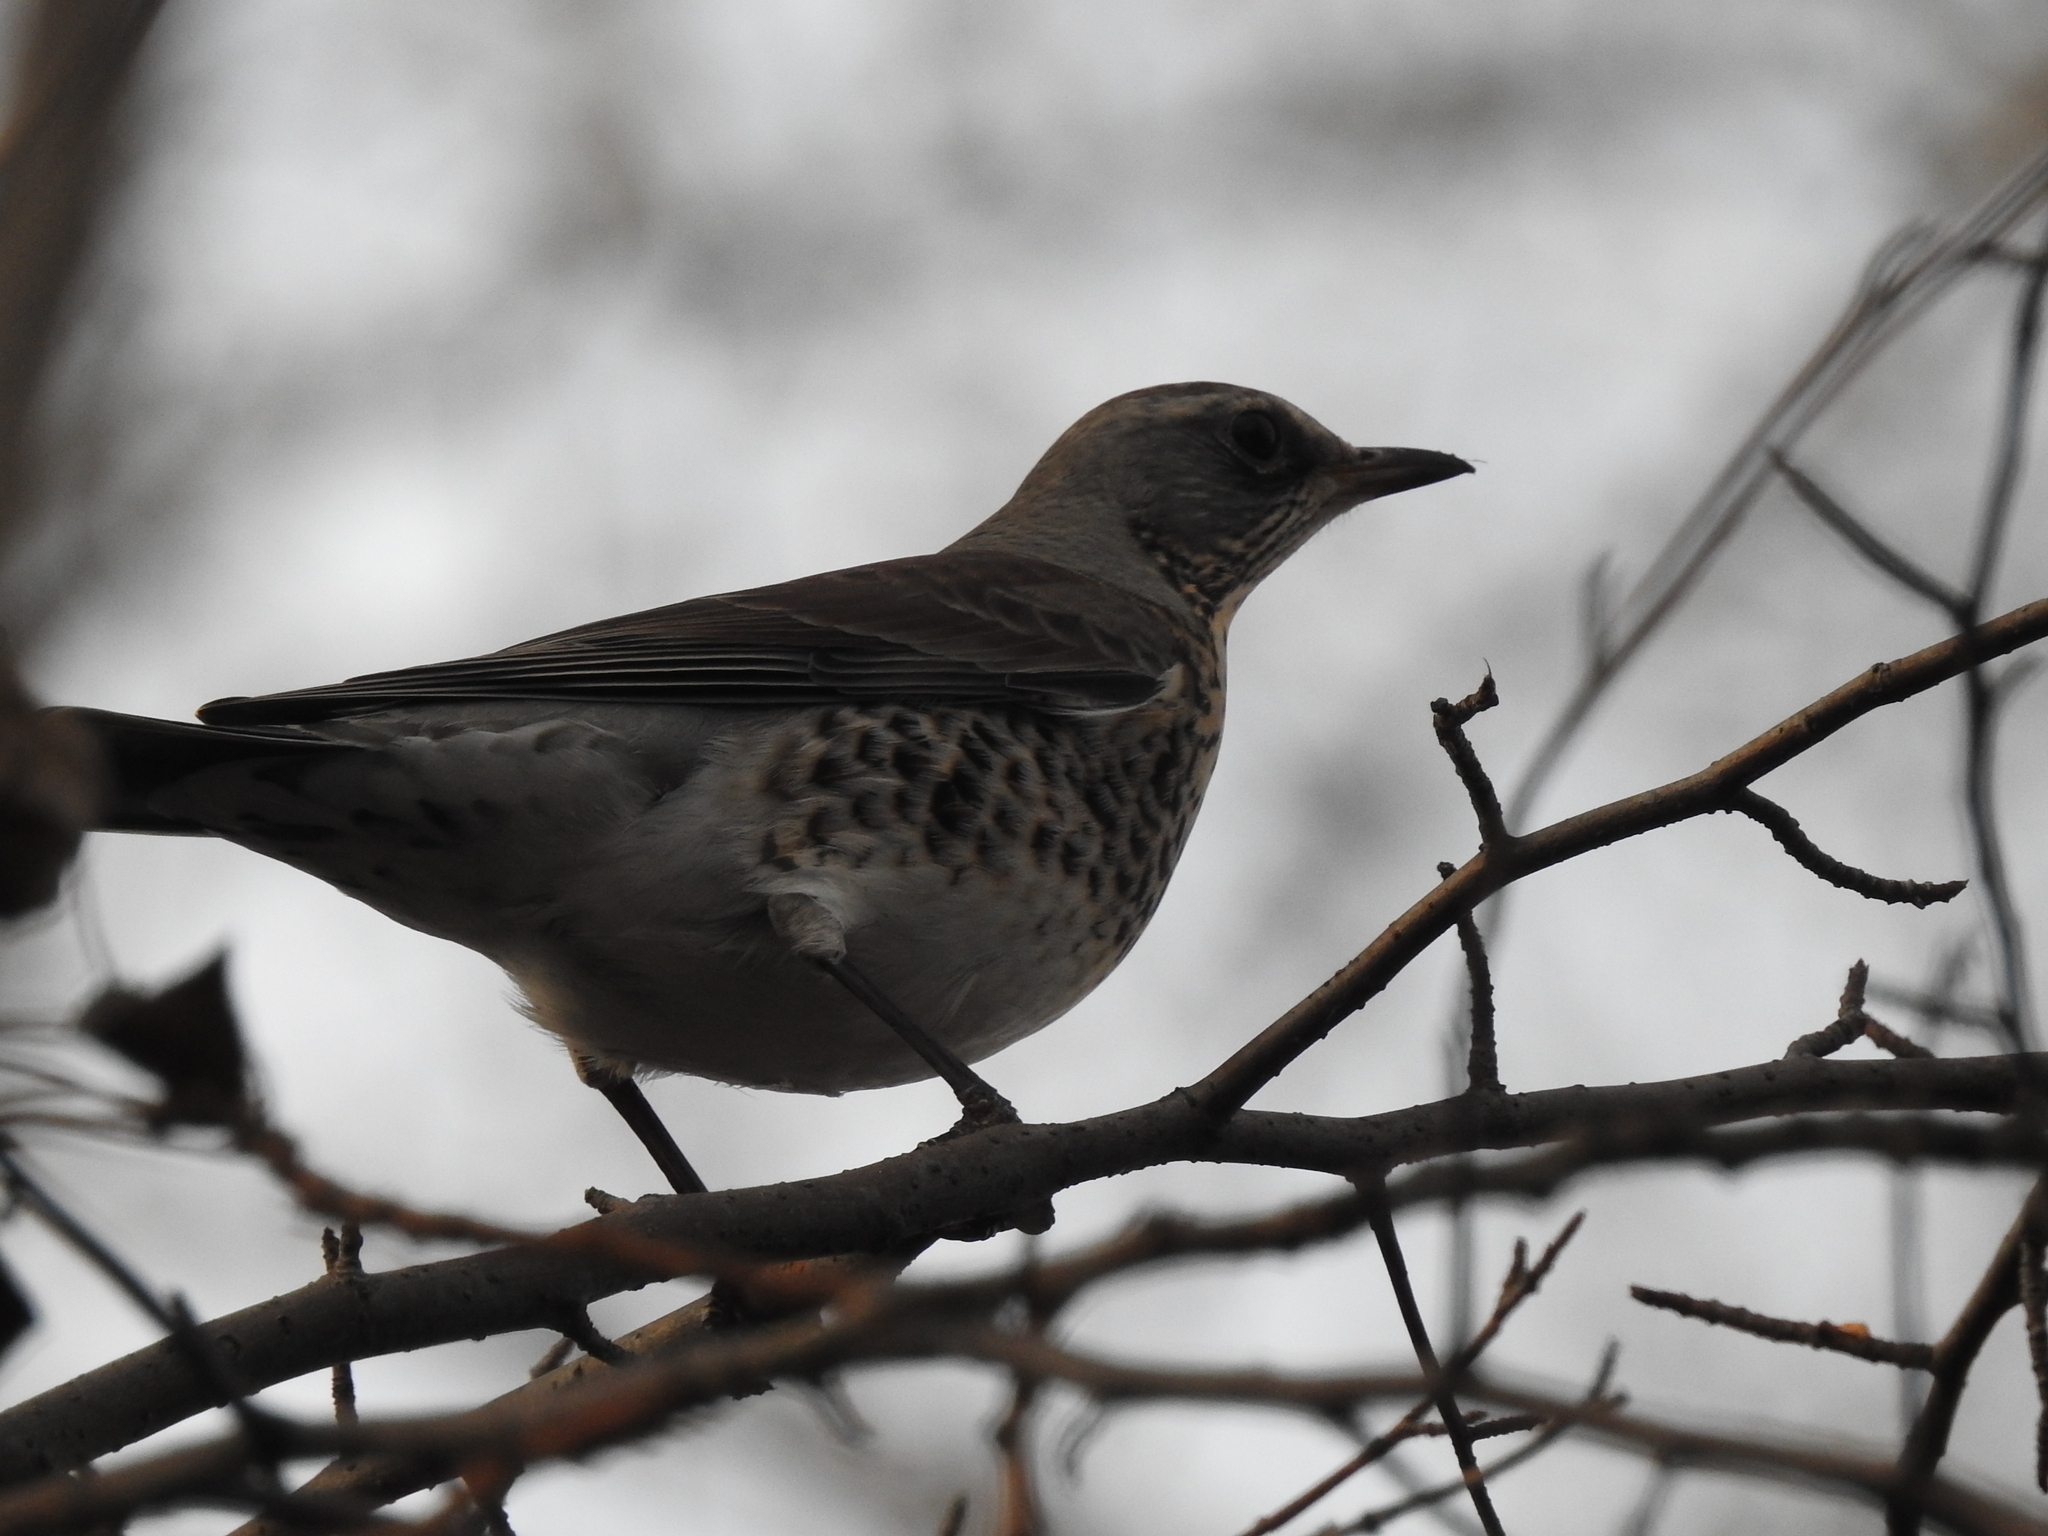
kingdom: Animalia
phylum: Chordata
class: Aves
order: Passeriformes
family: Turdidae
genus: Turdus
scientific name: Turdus pilaris
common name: Fieldfare
